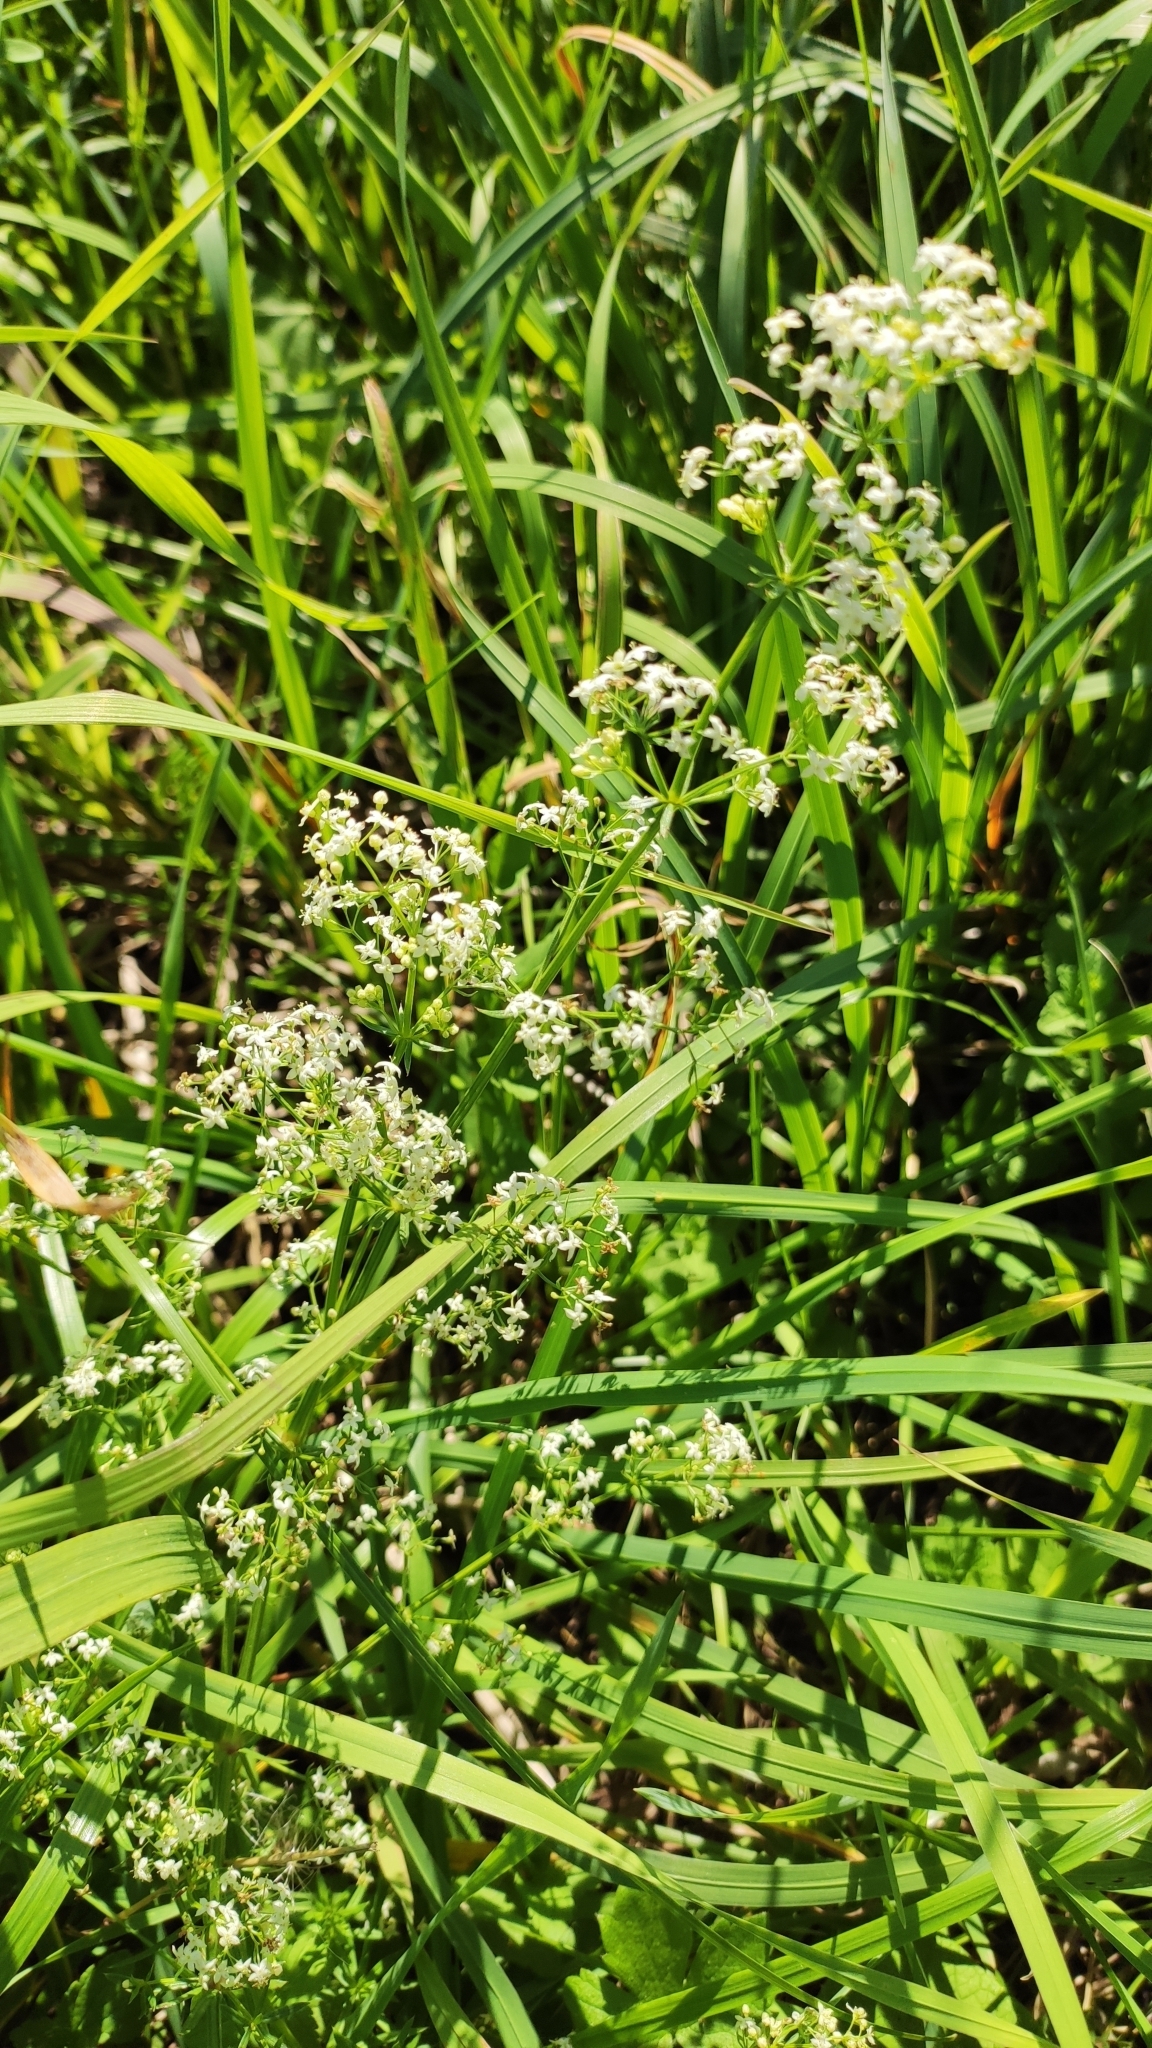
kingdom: Plantae
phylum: Tracheophyta
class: Magnoliopsida
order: Gentianales
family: Rubiaceae
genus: Galium
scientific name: Galium mollugo
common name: Hedge bedstraw
